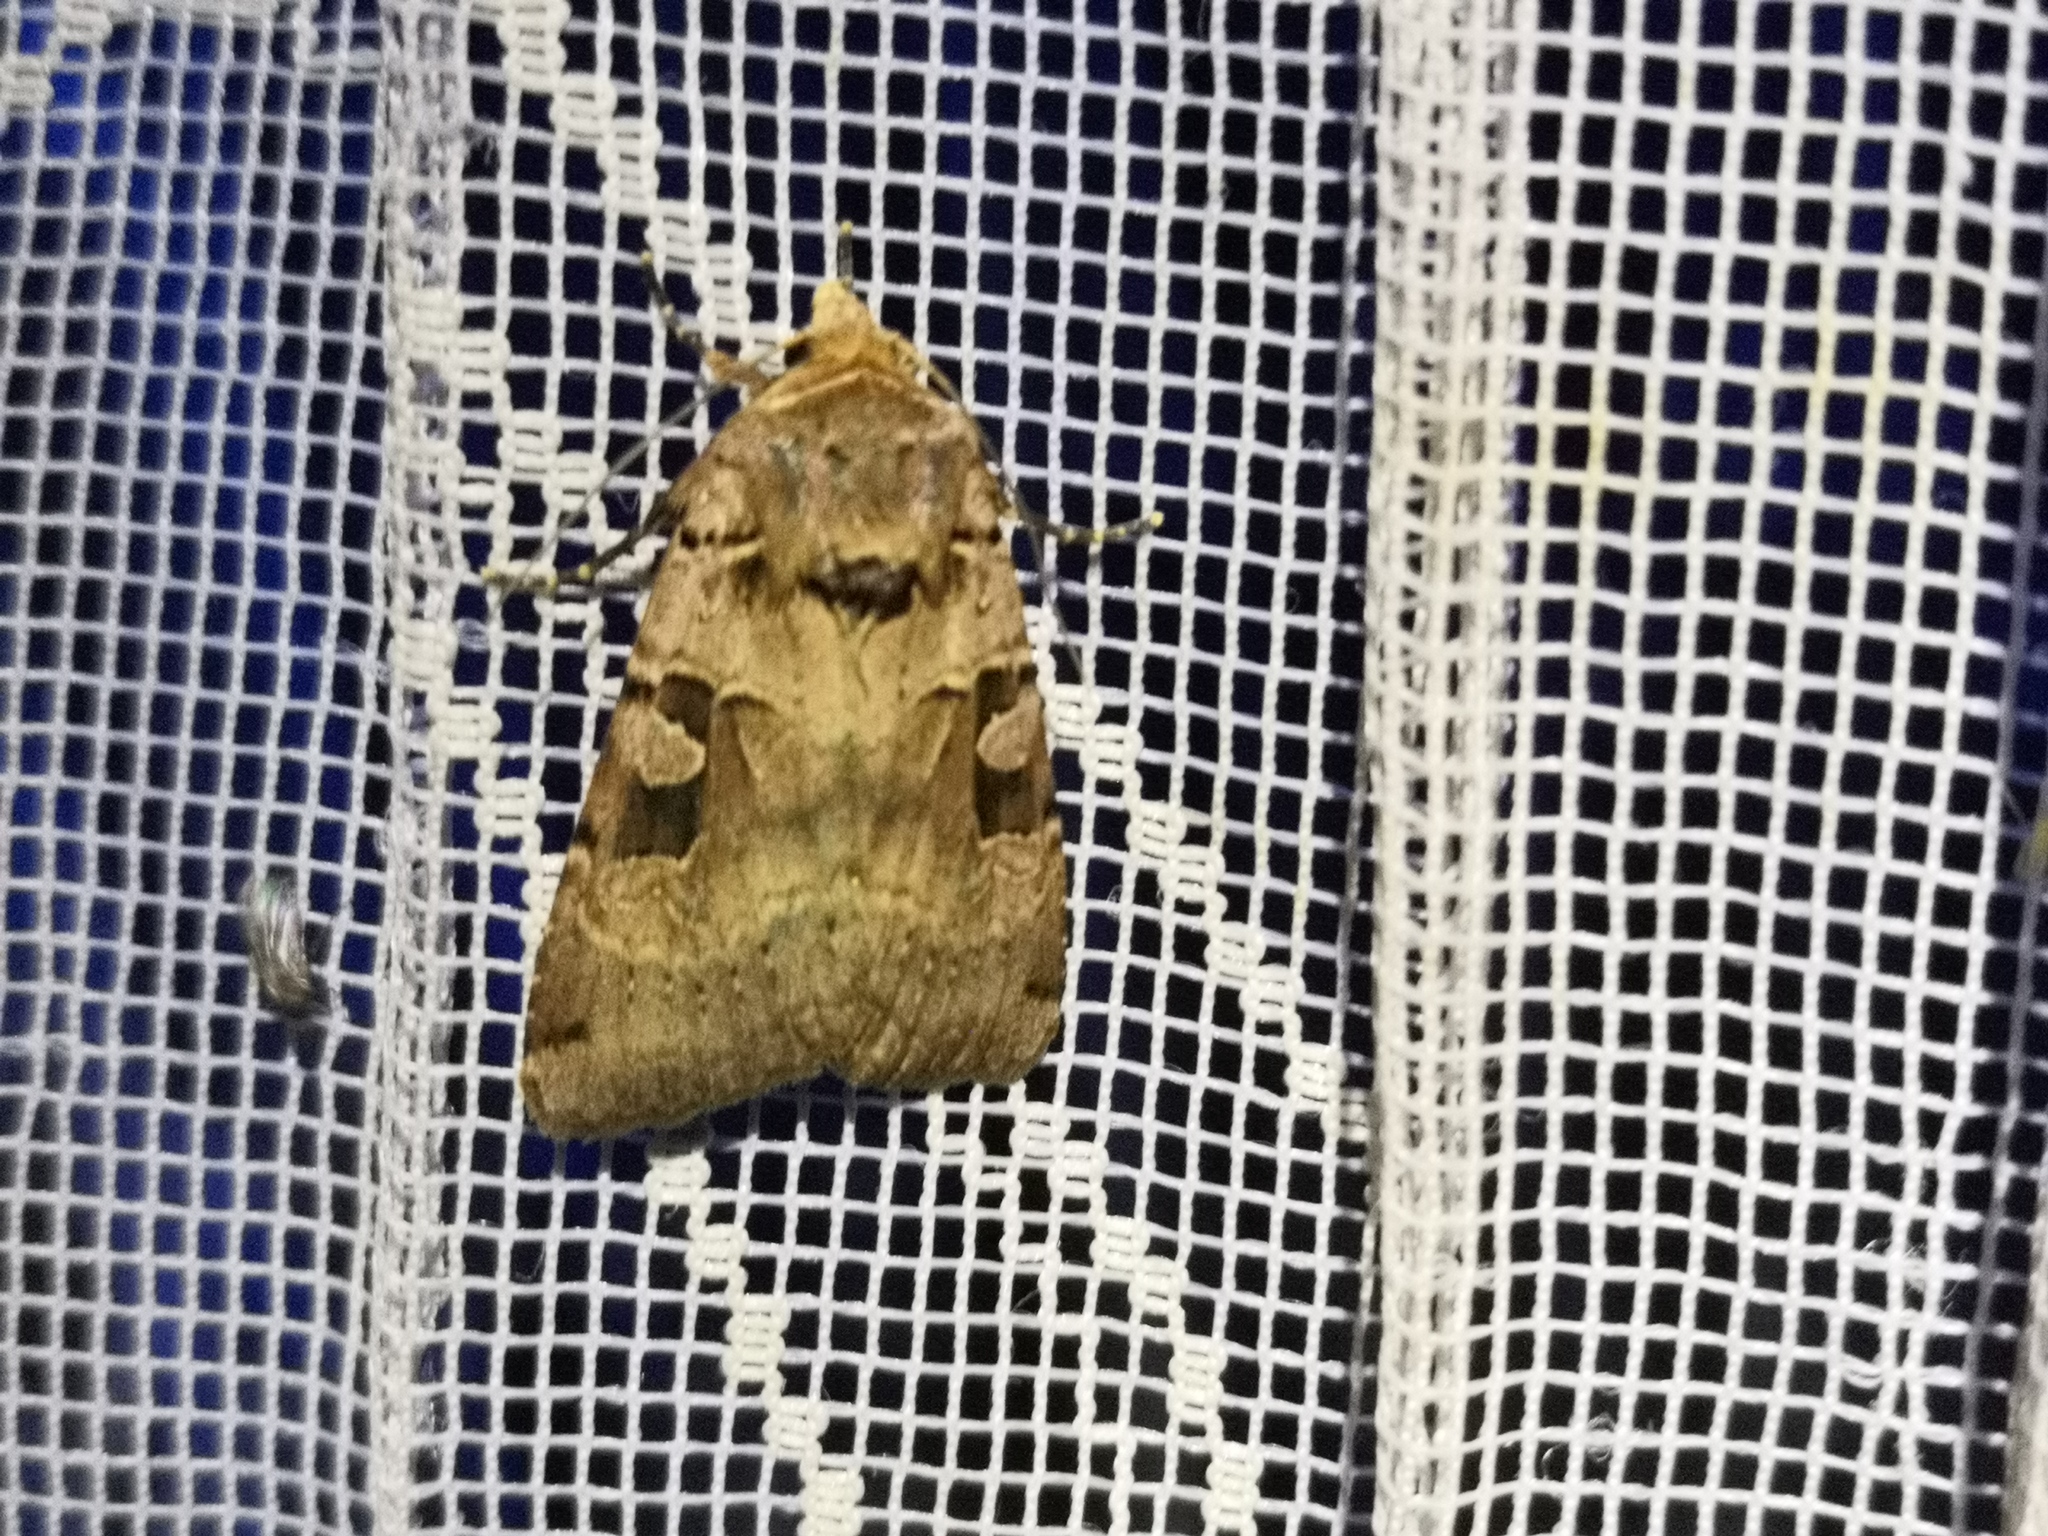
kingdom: Animalia
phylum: Arthropoda
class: Insecta
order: Lepidoptera
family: Noctuidae
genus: Xestia
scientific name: Xestia triangulum
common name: Double square-spot
